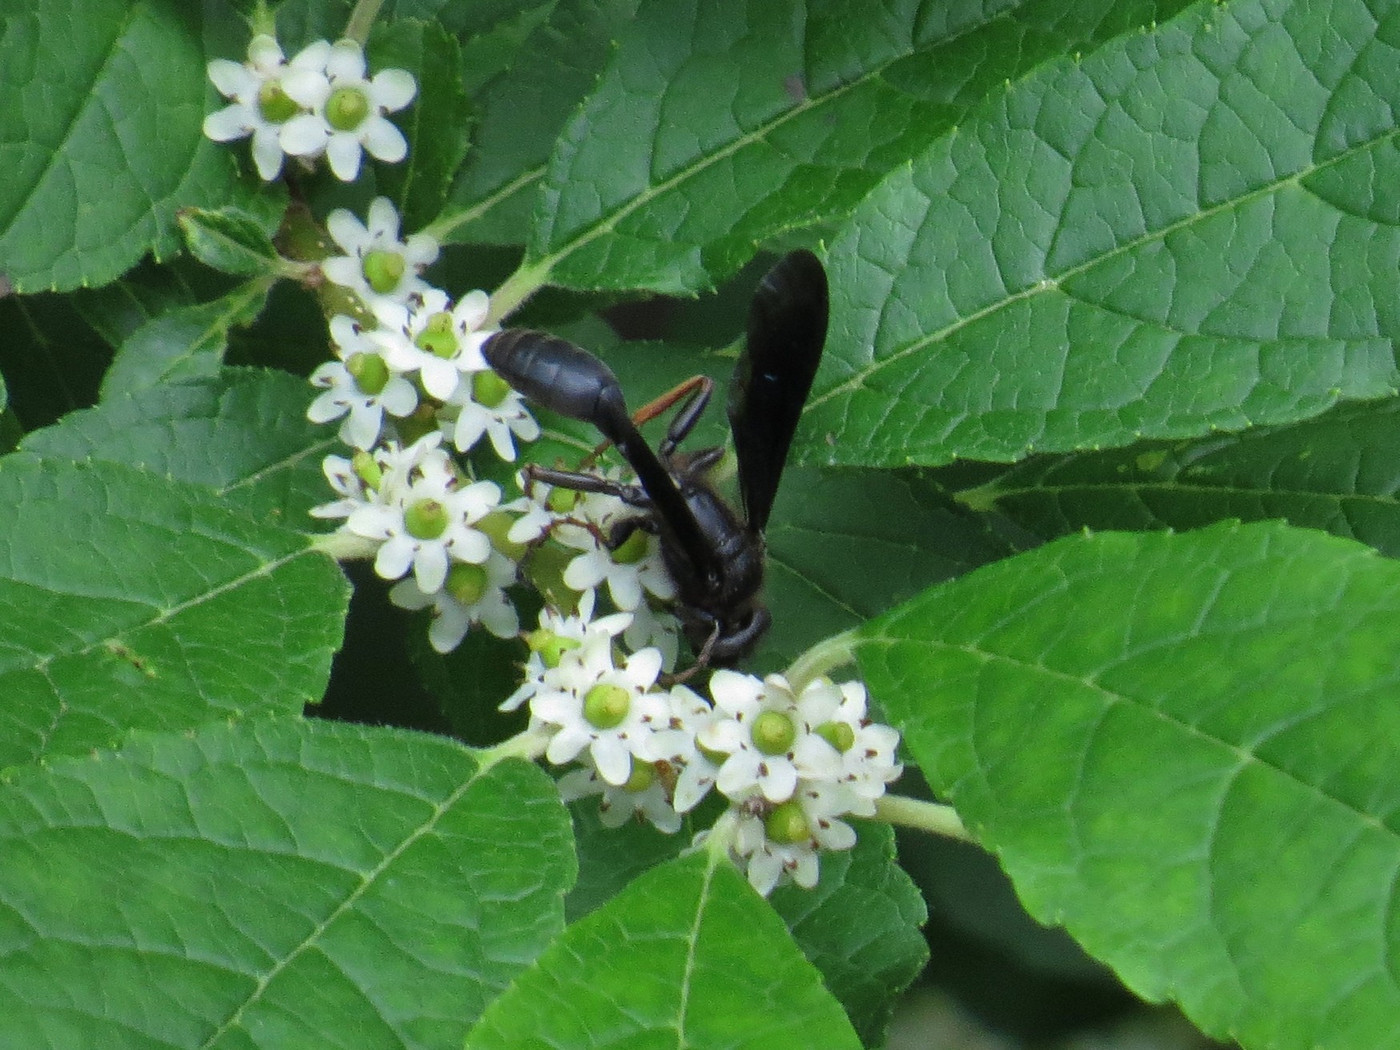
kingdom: Animalia
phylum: Arthropoda
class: Insecta
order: Hymenoptera
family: Sphecidae
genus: Isodontia
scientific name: Isodontia auripes
